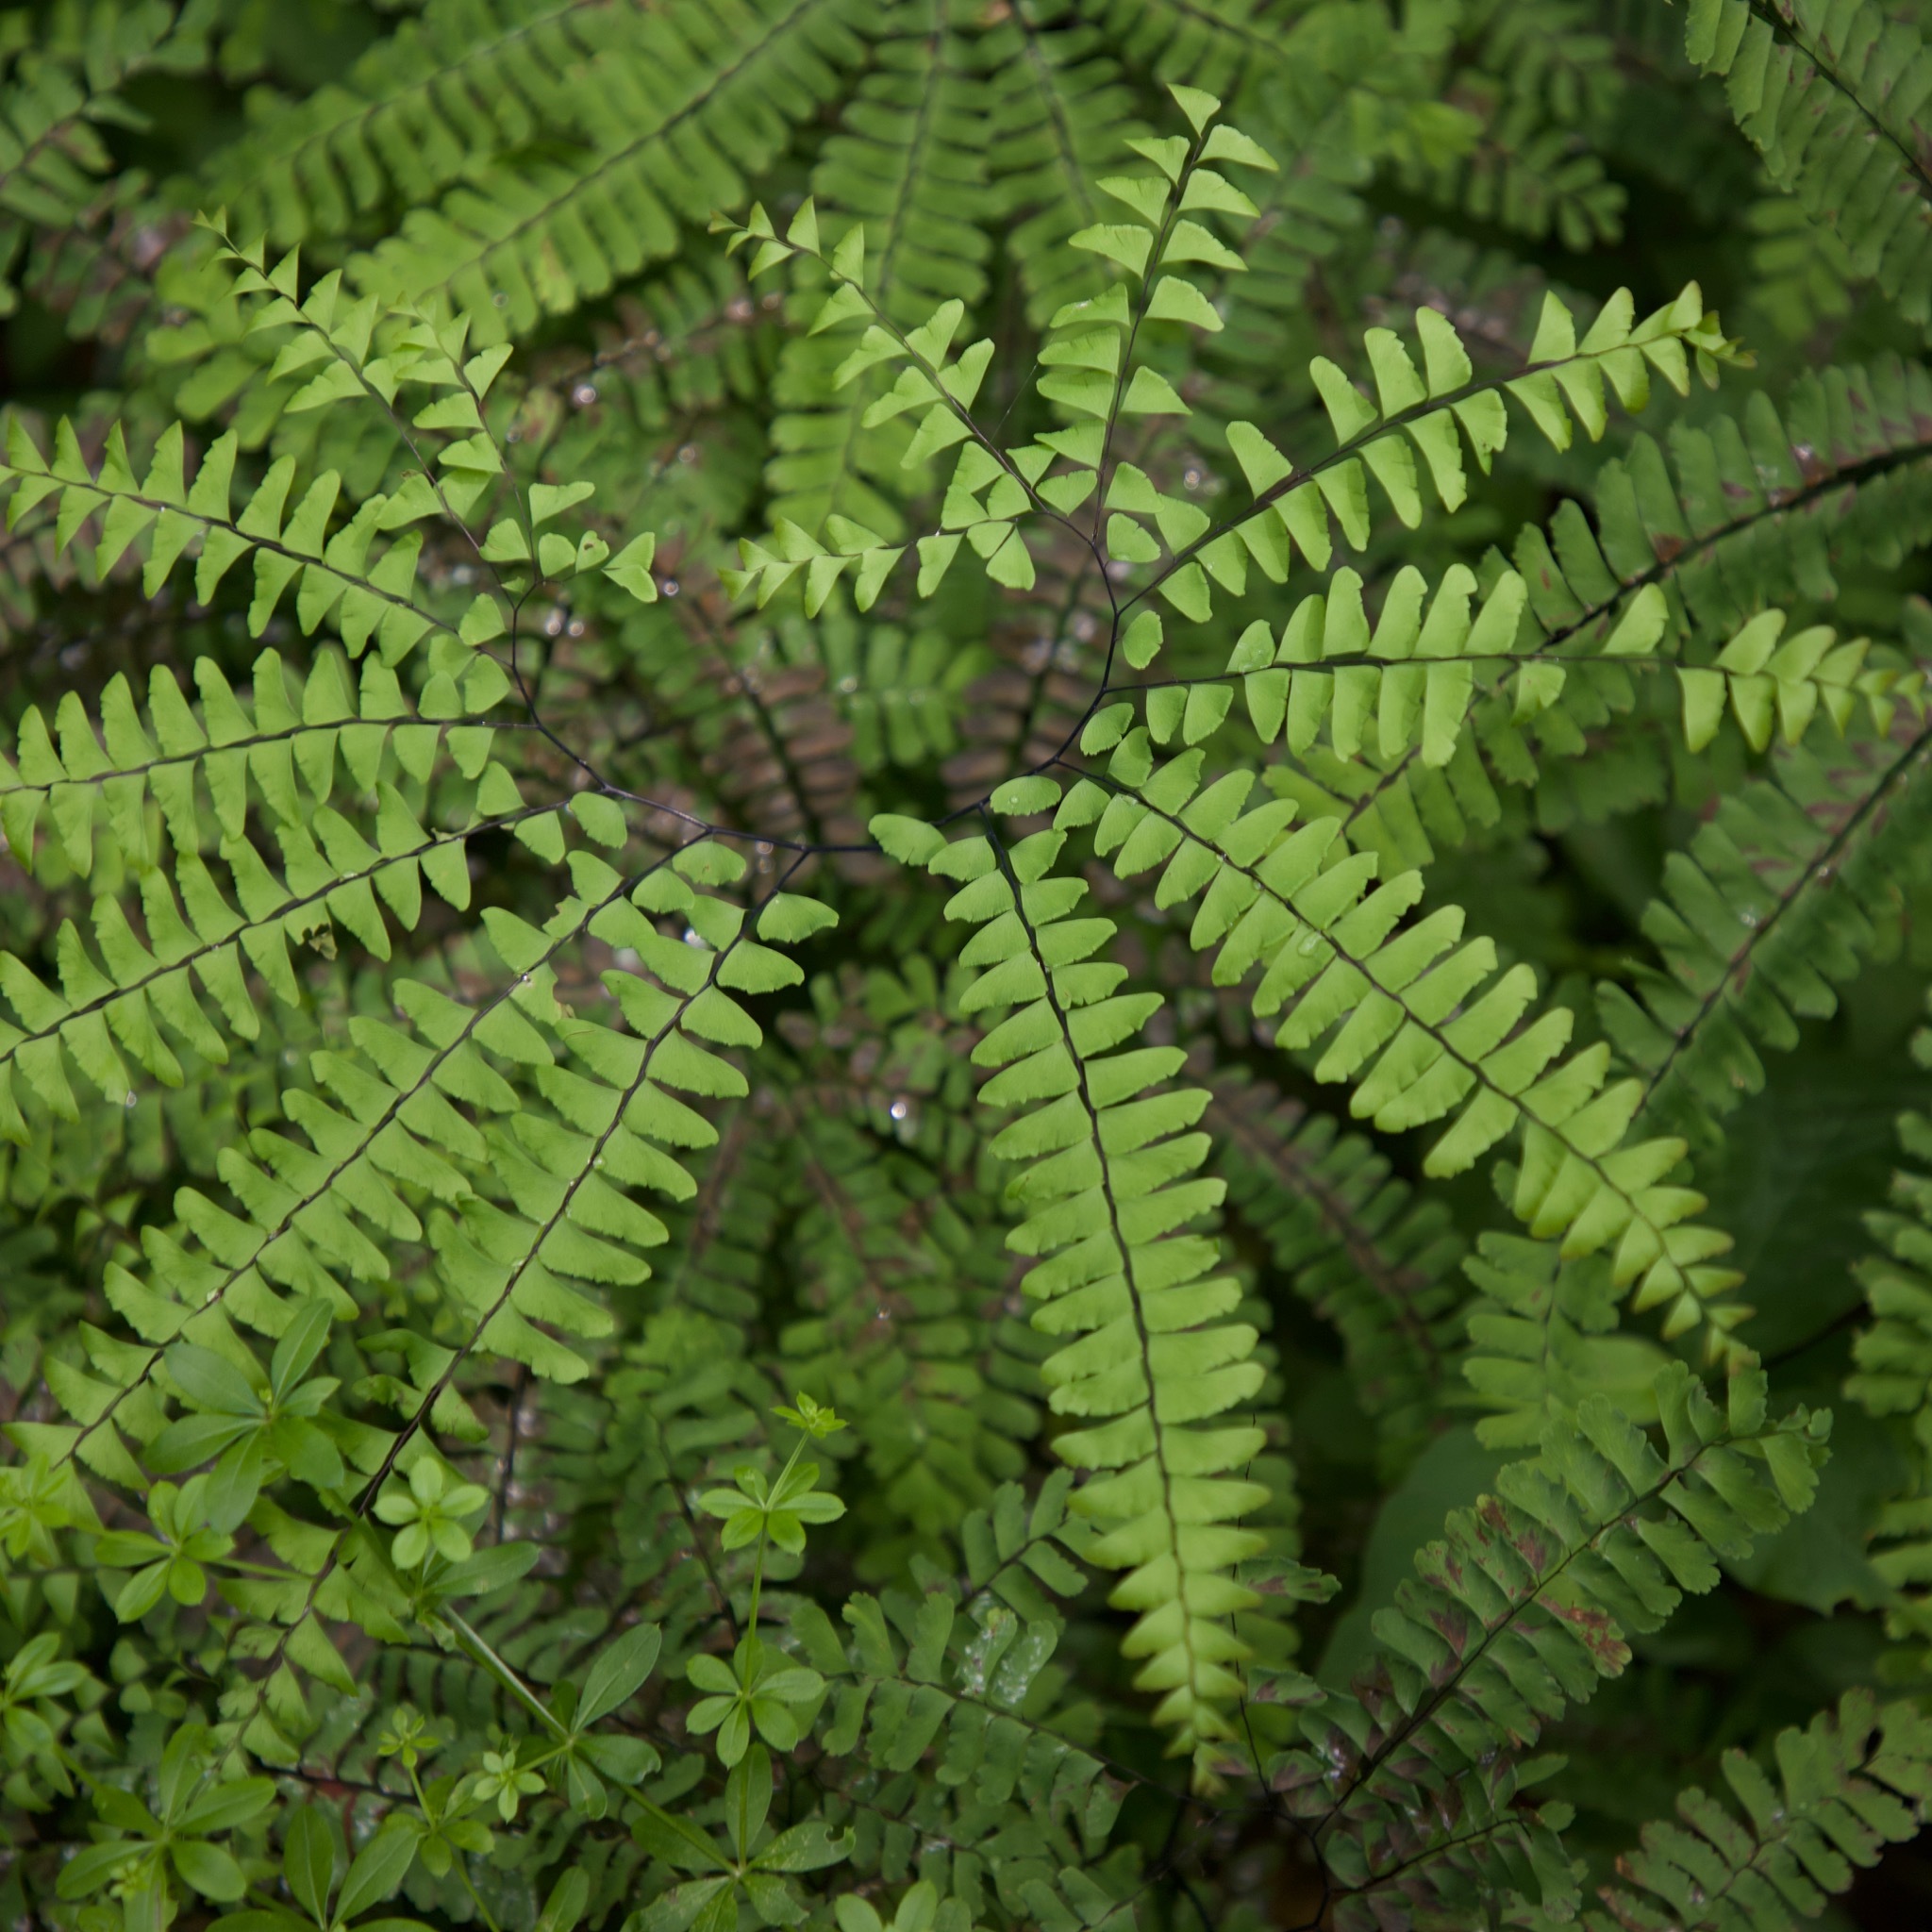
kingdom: Plantae
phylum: Tracheophyta
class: Polypodiopsida
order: Polypodiales
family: Pteridaceae
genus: Adiantum
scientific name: Adiantum pedatum
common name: Five-finger fern
